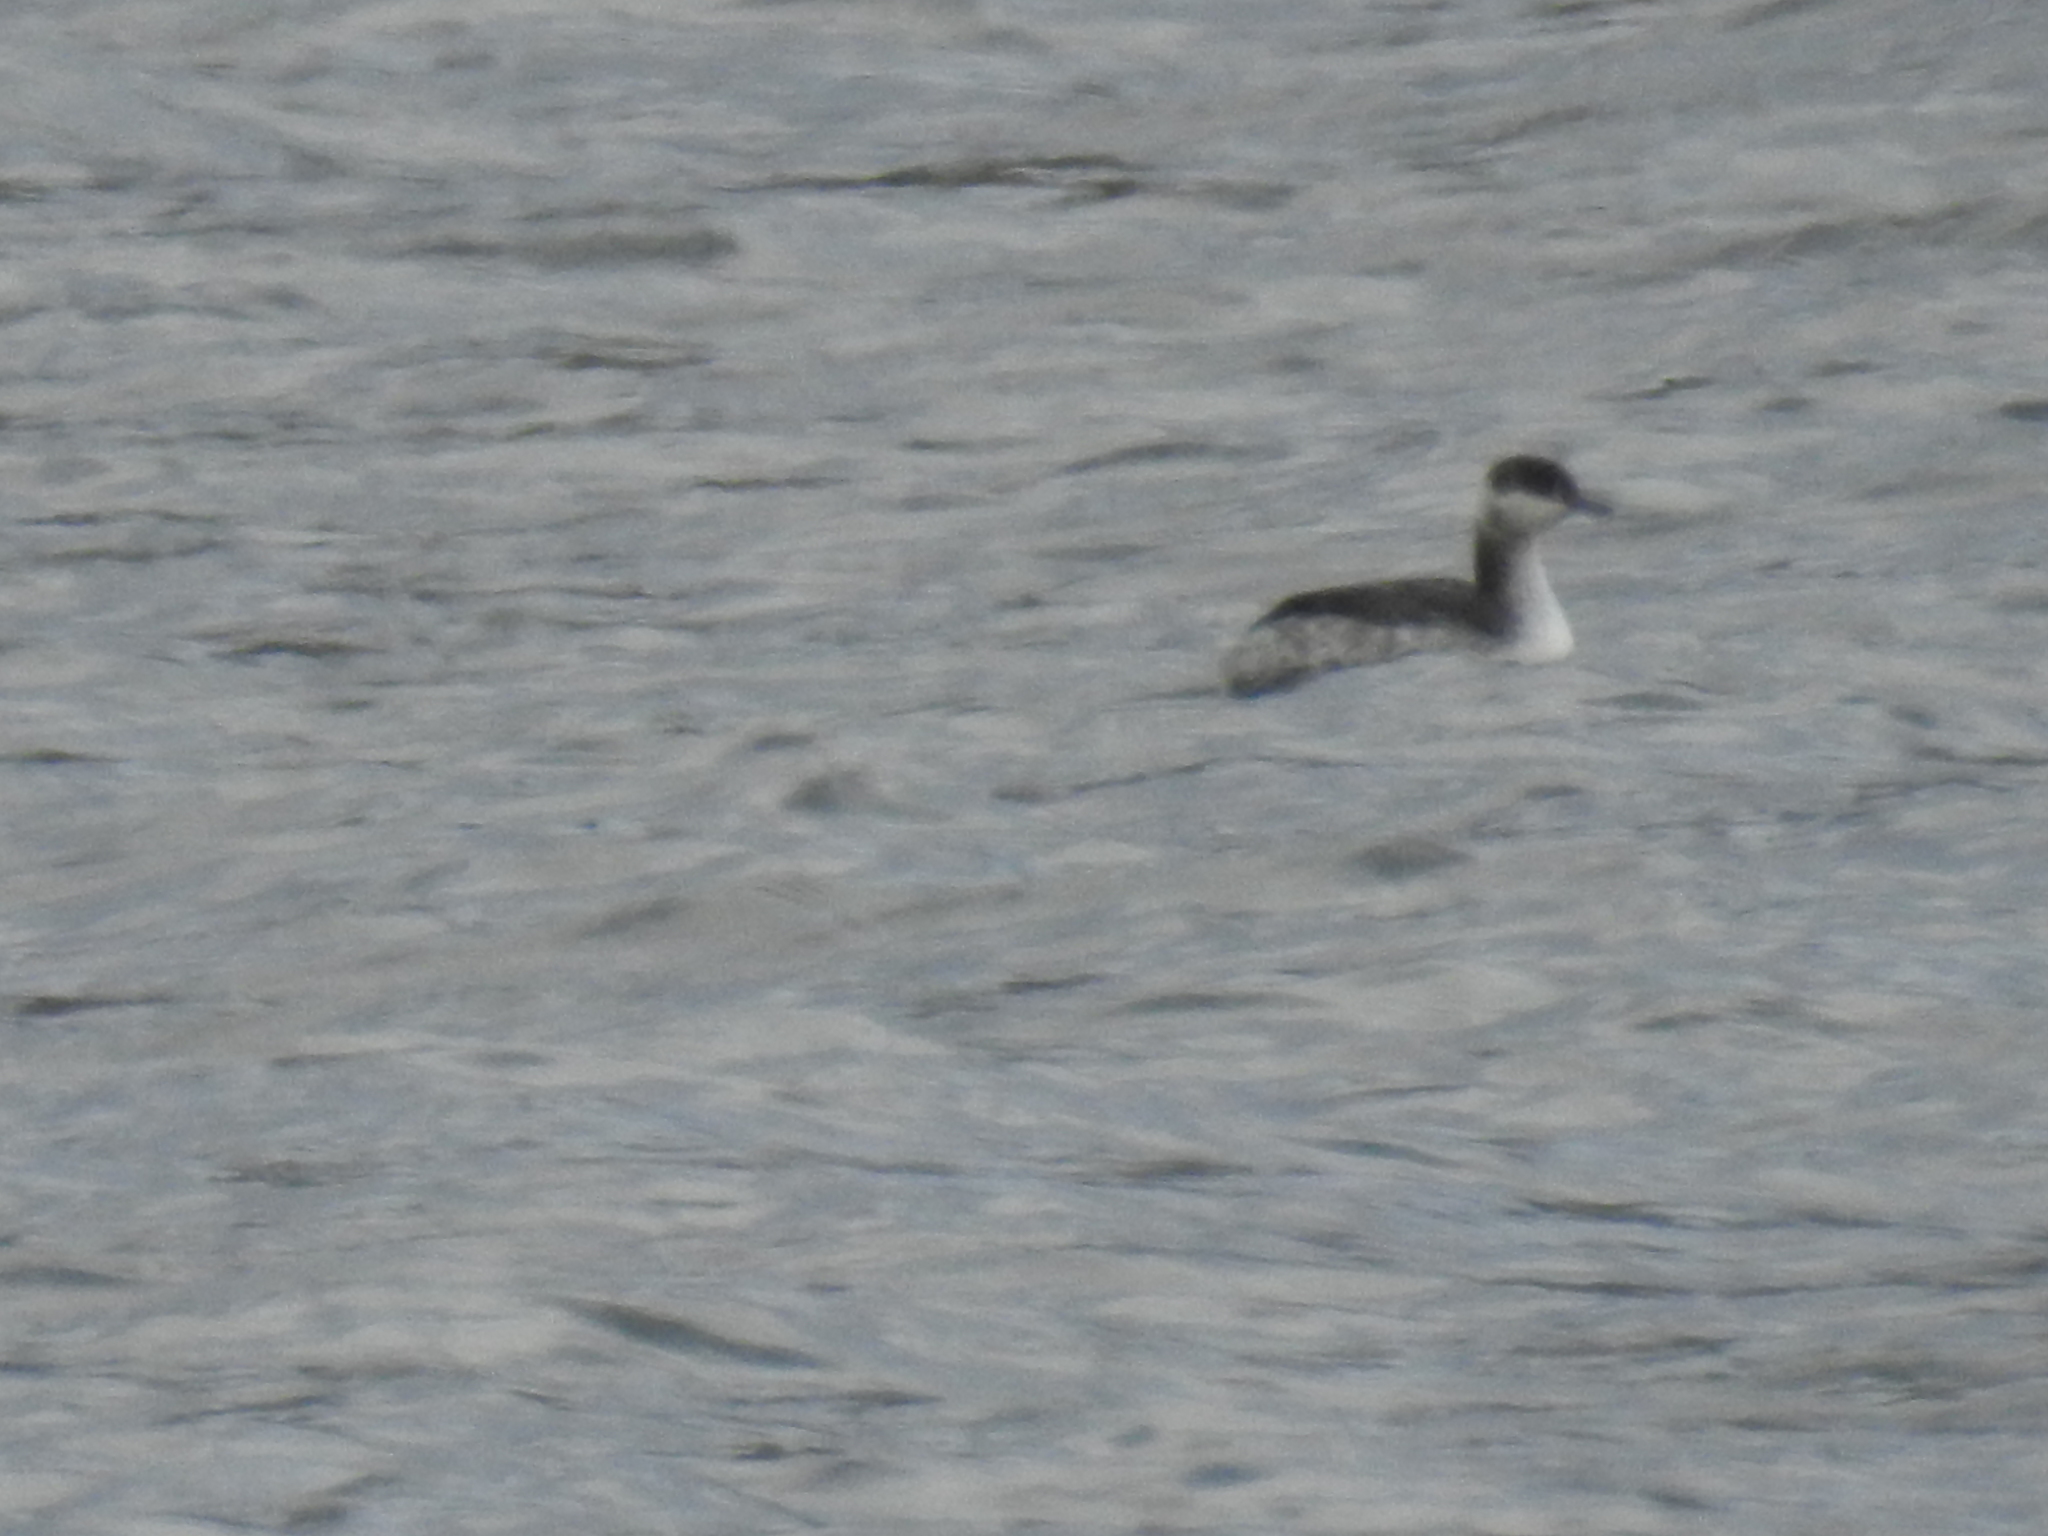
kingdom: Animalia
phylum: Chordata
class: Aves
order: Podicipediformes
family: Podicipedidae
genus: Podiceps
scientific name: Podiceps auritus
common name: Horned grebe
